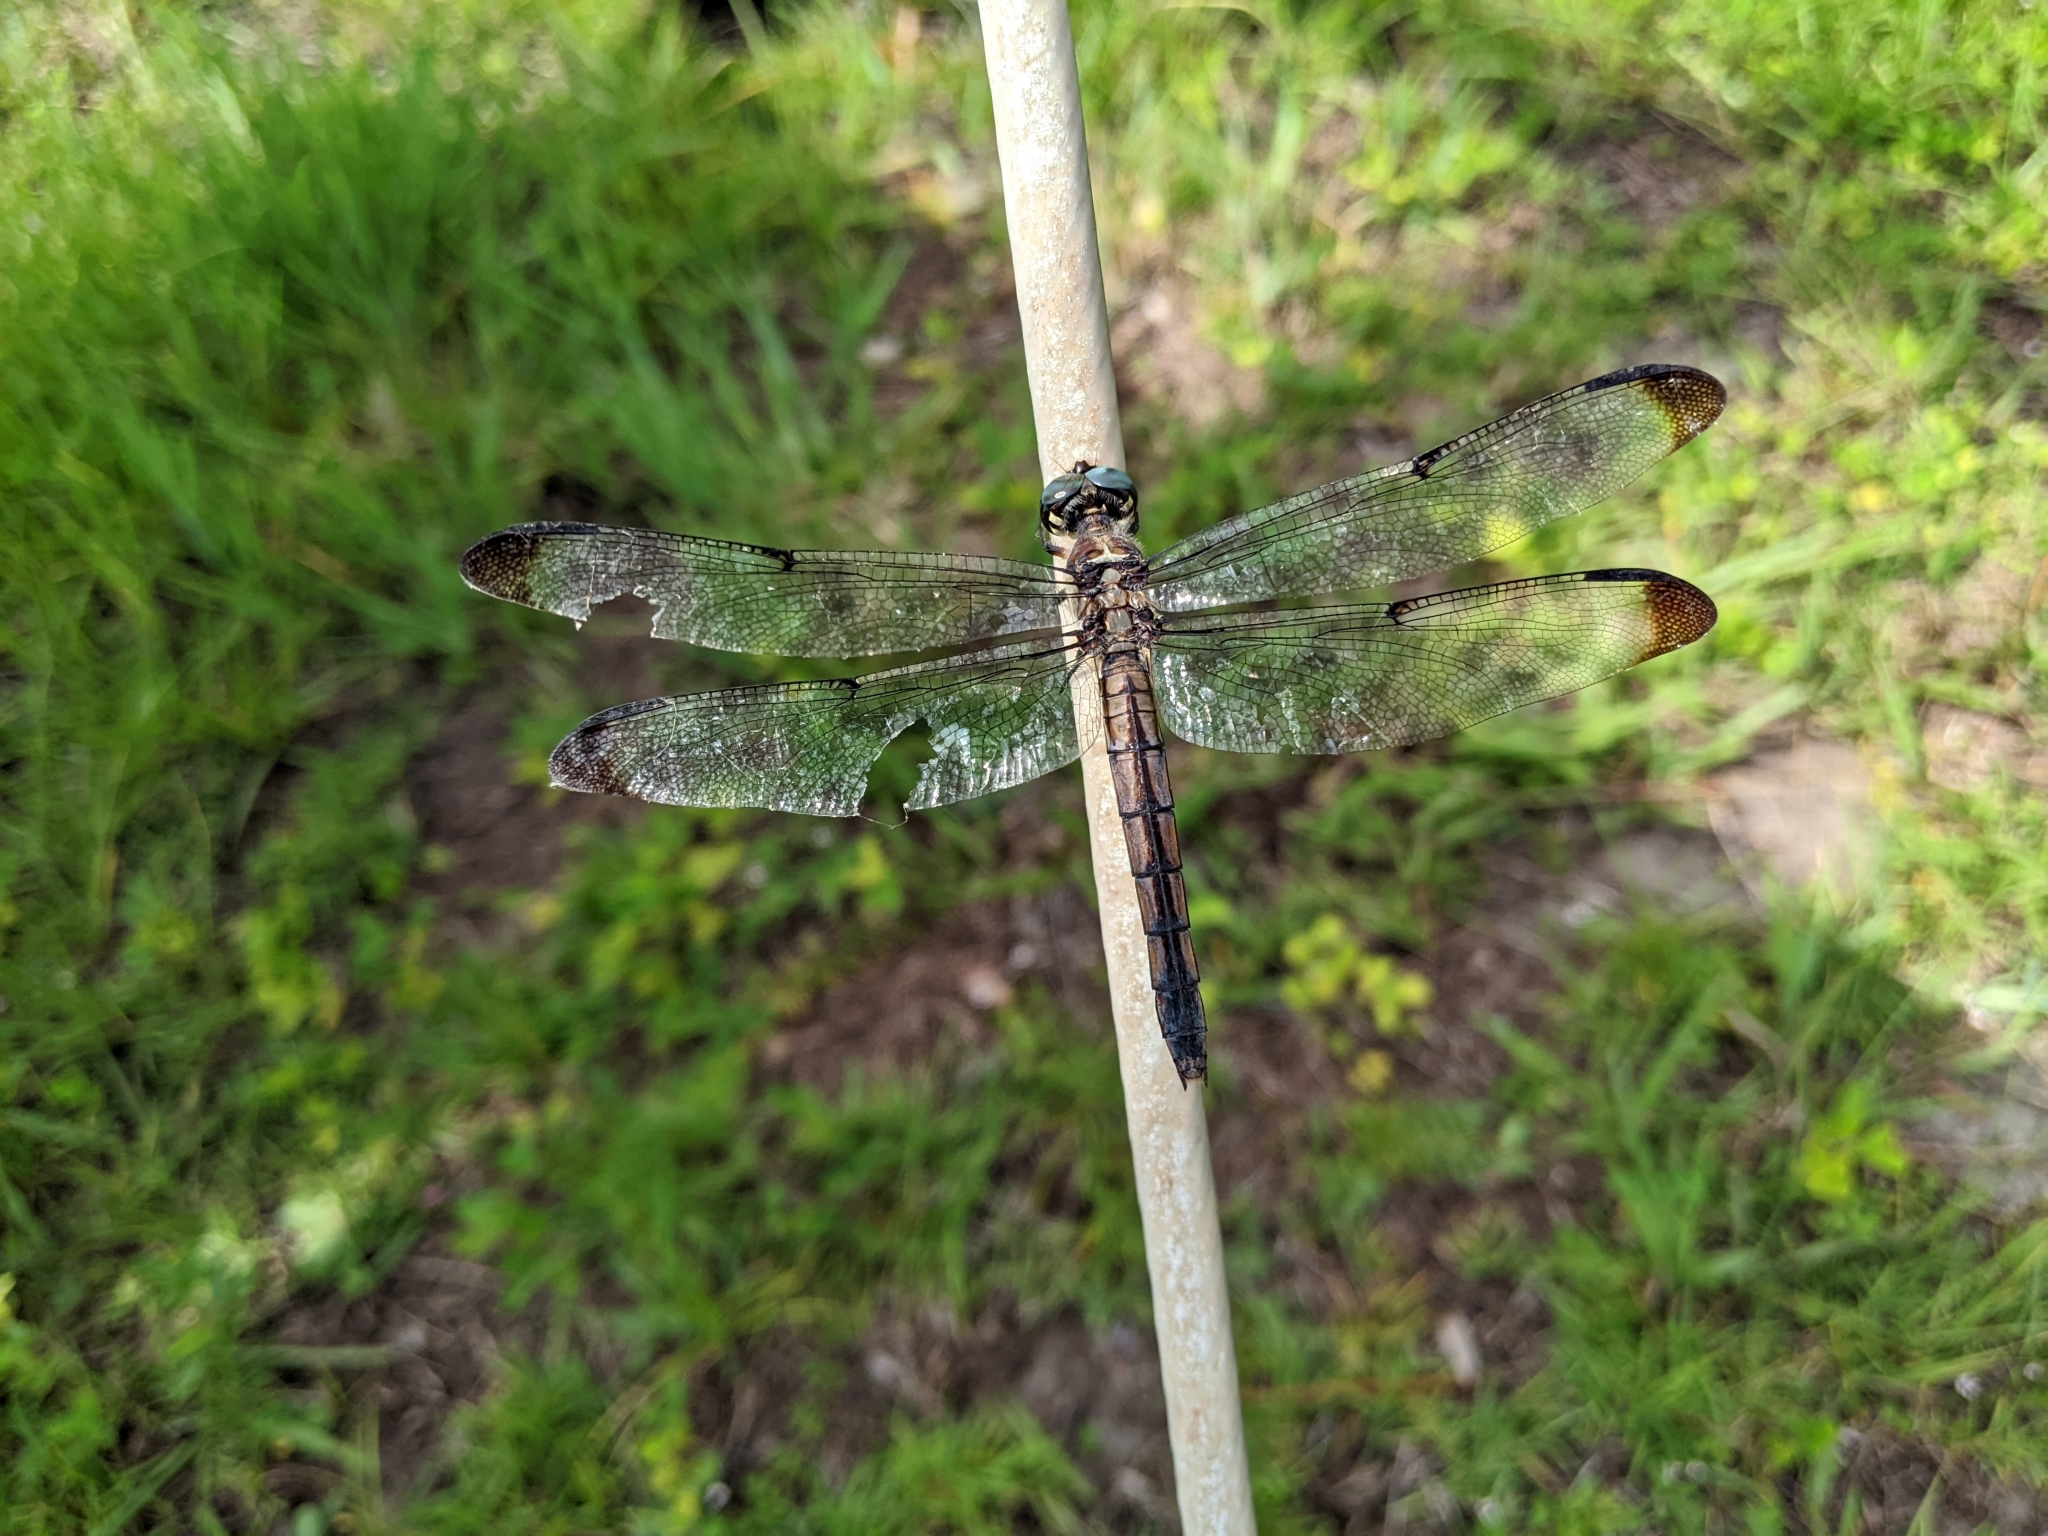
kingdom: Animalia
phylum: Arthropoda
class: Insecta
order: Odonata
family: Libellulidae
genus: Libellula
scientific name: Libellula vibrans
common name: Great blue skimmer
